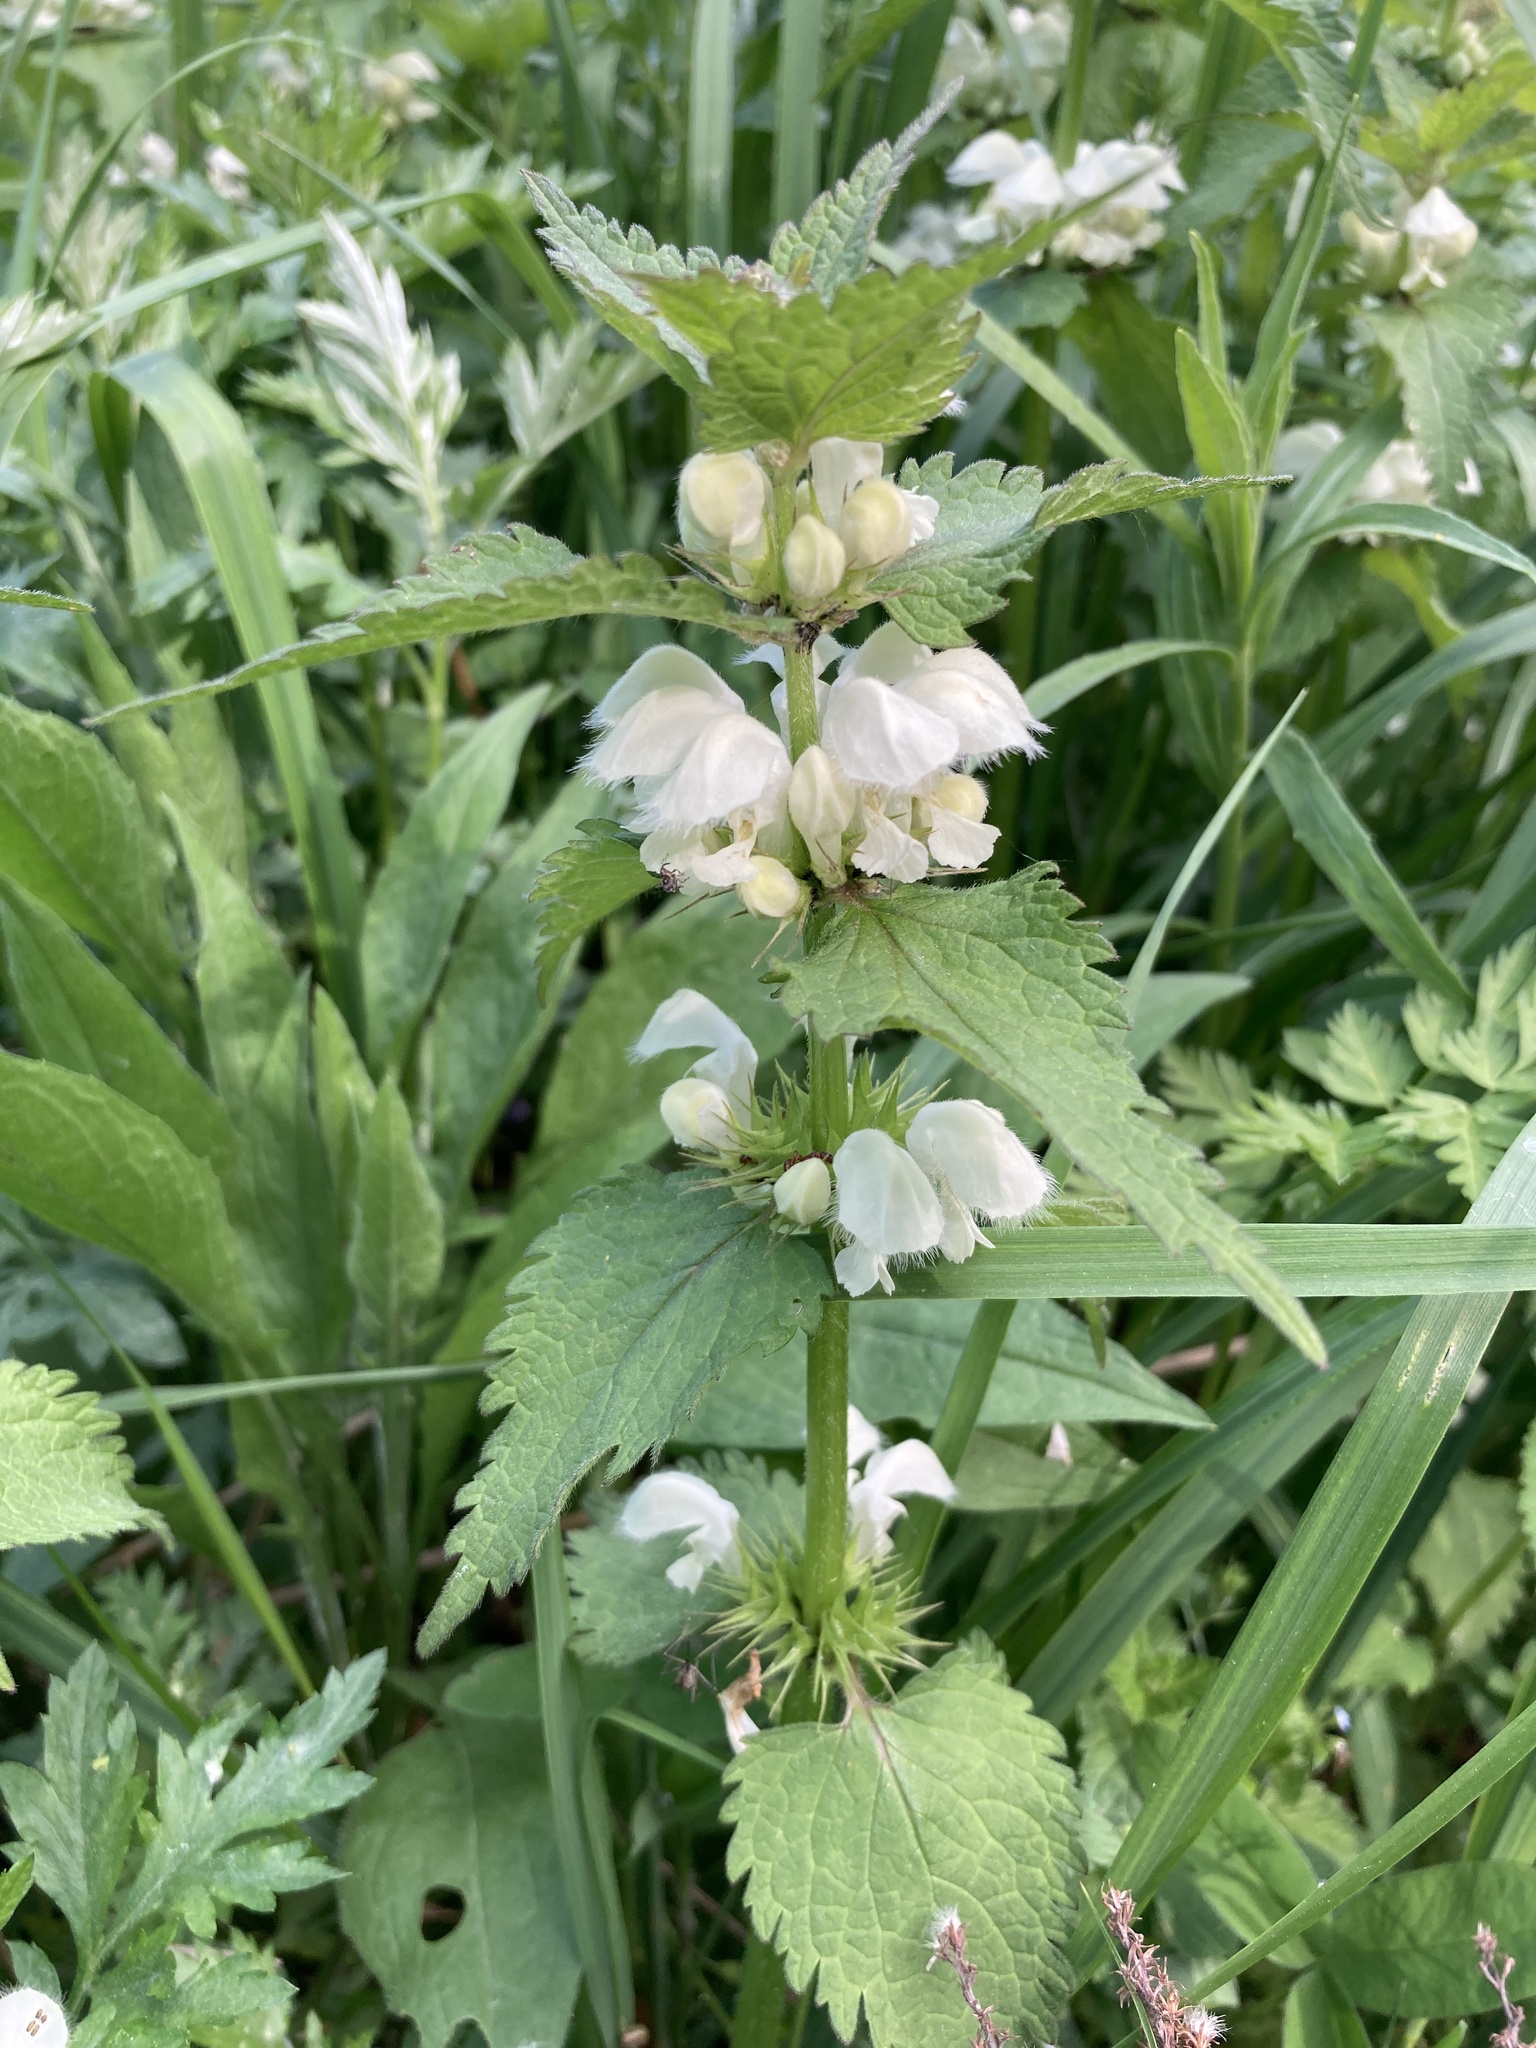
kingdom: Plantae
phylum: Tracheophyta
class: Magnoliopsida
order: Lamiales
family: Lamiaceae
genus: Lamium
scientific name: Lamium album
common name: White dead-nettle
